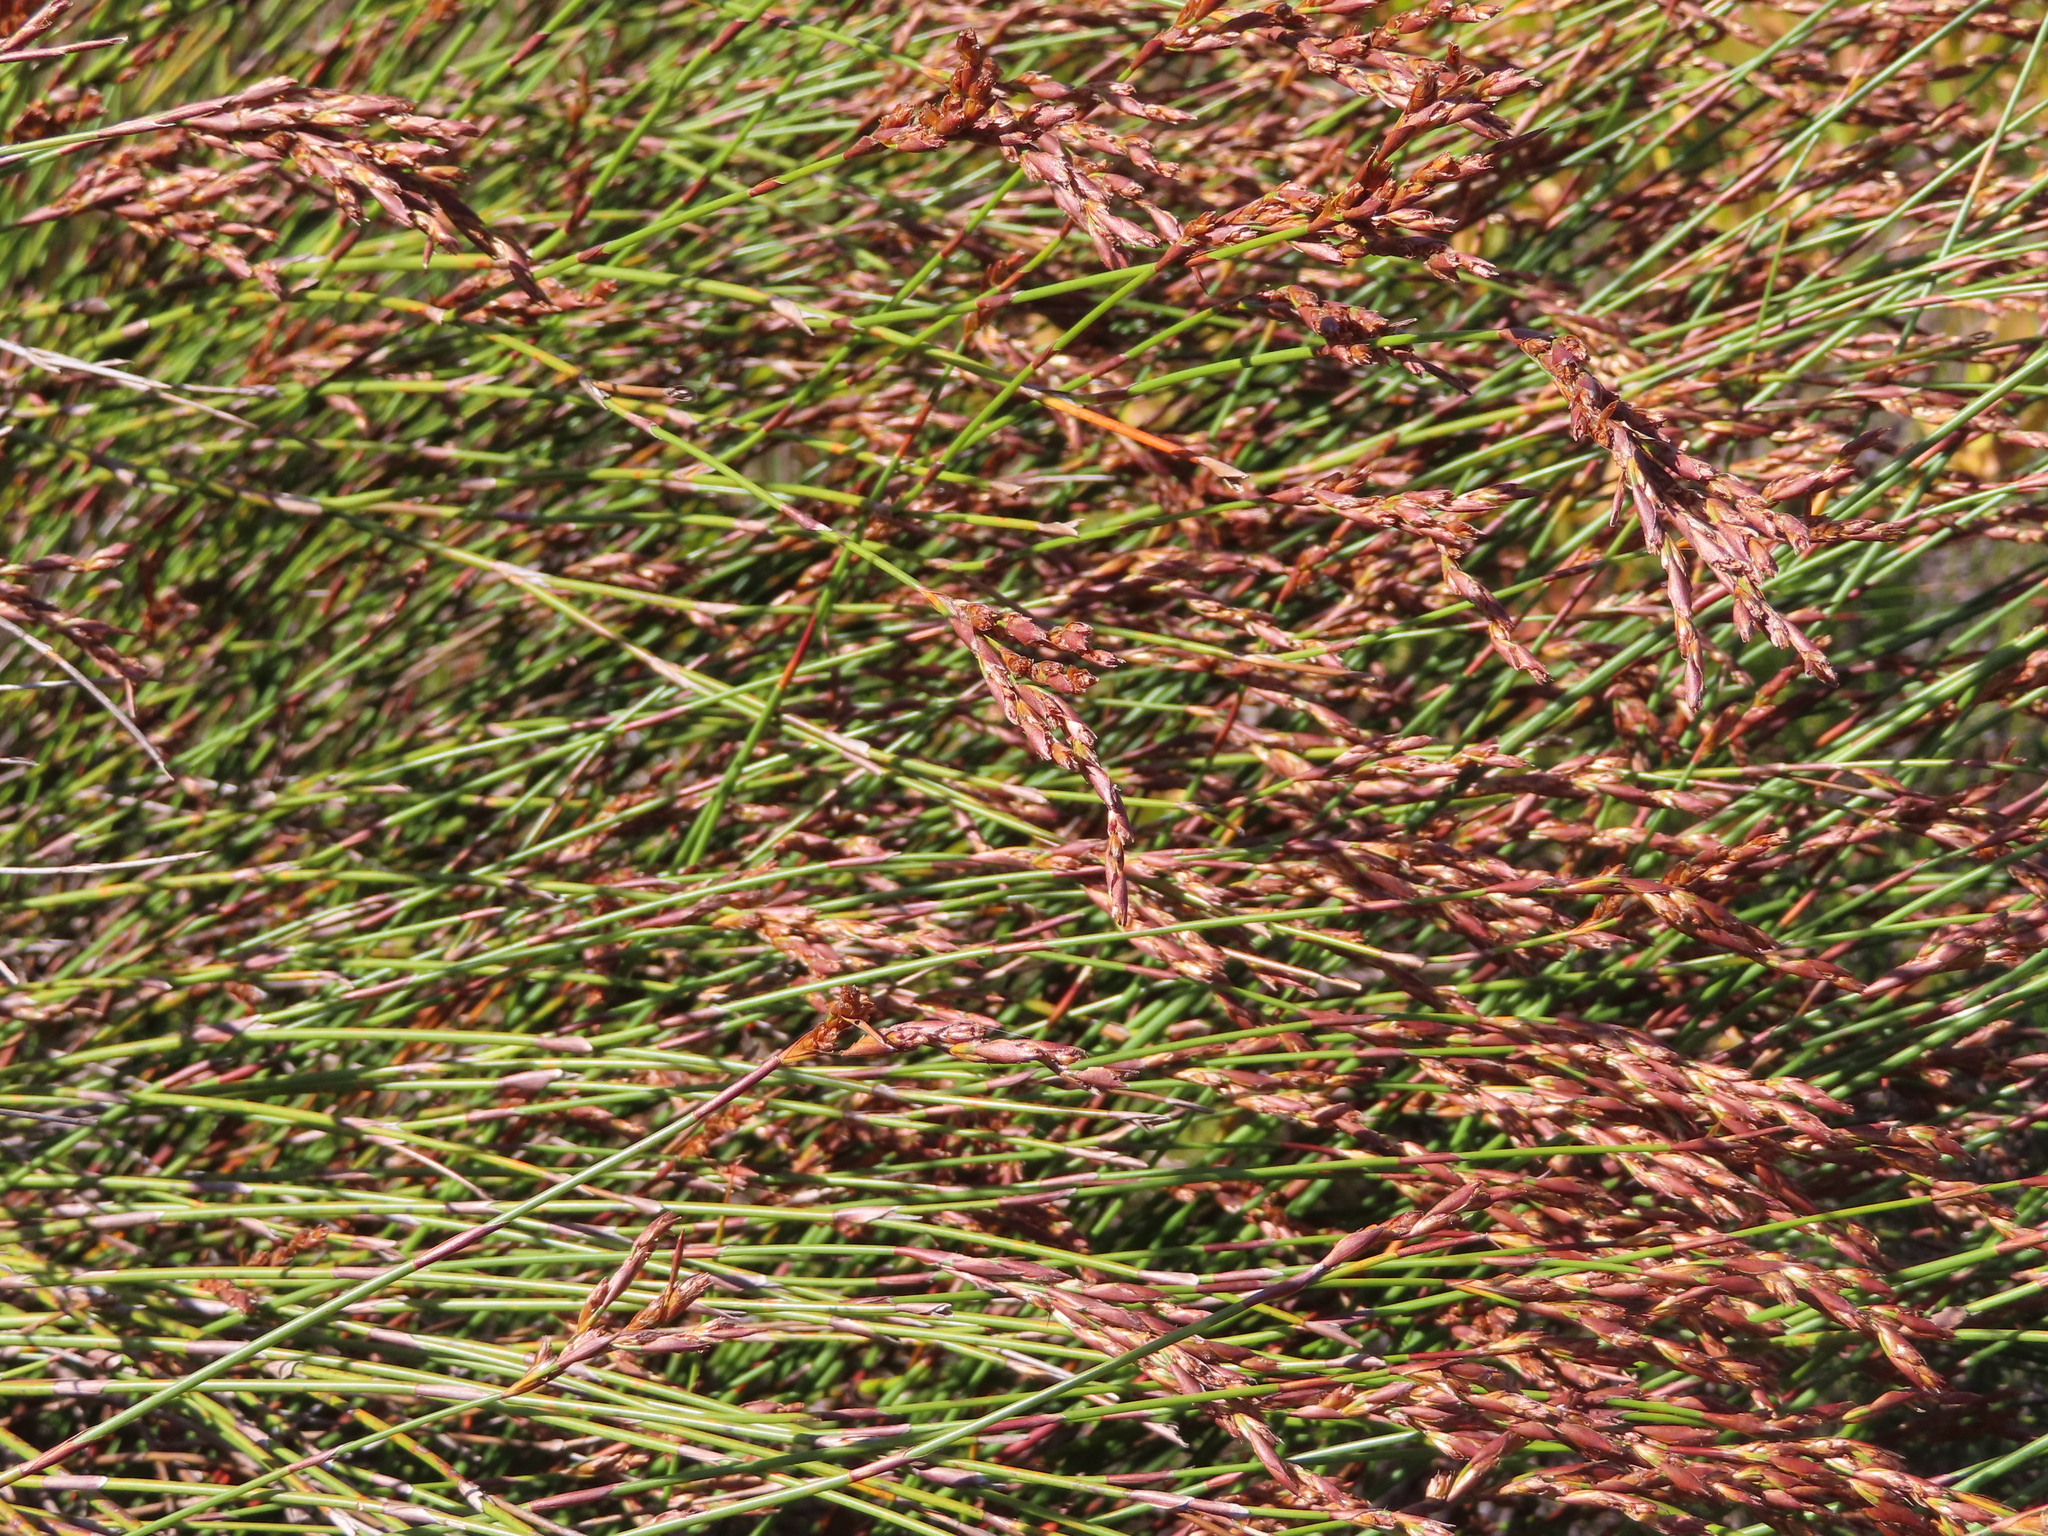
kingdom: Plantae
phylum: Tracheophyta
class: Liliopsida
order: Poales
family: Restionaceae
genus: Restio
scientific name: Restio dispar
